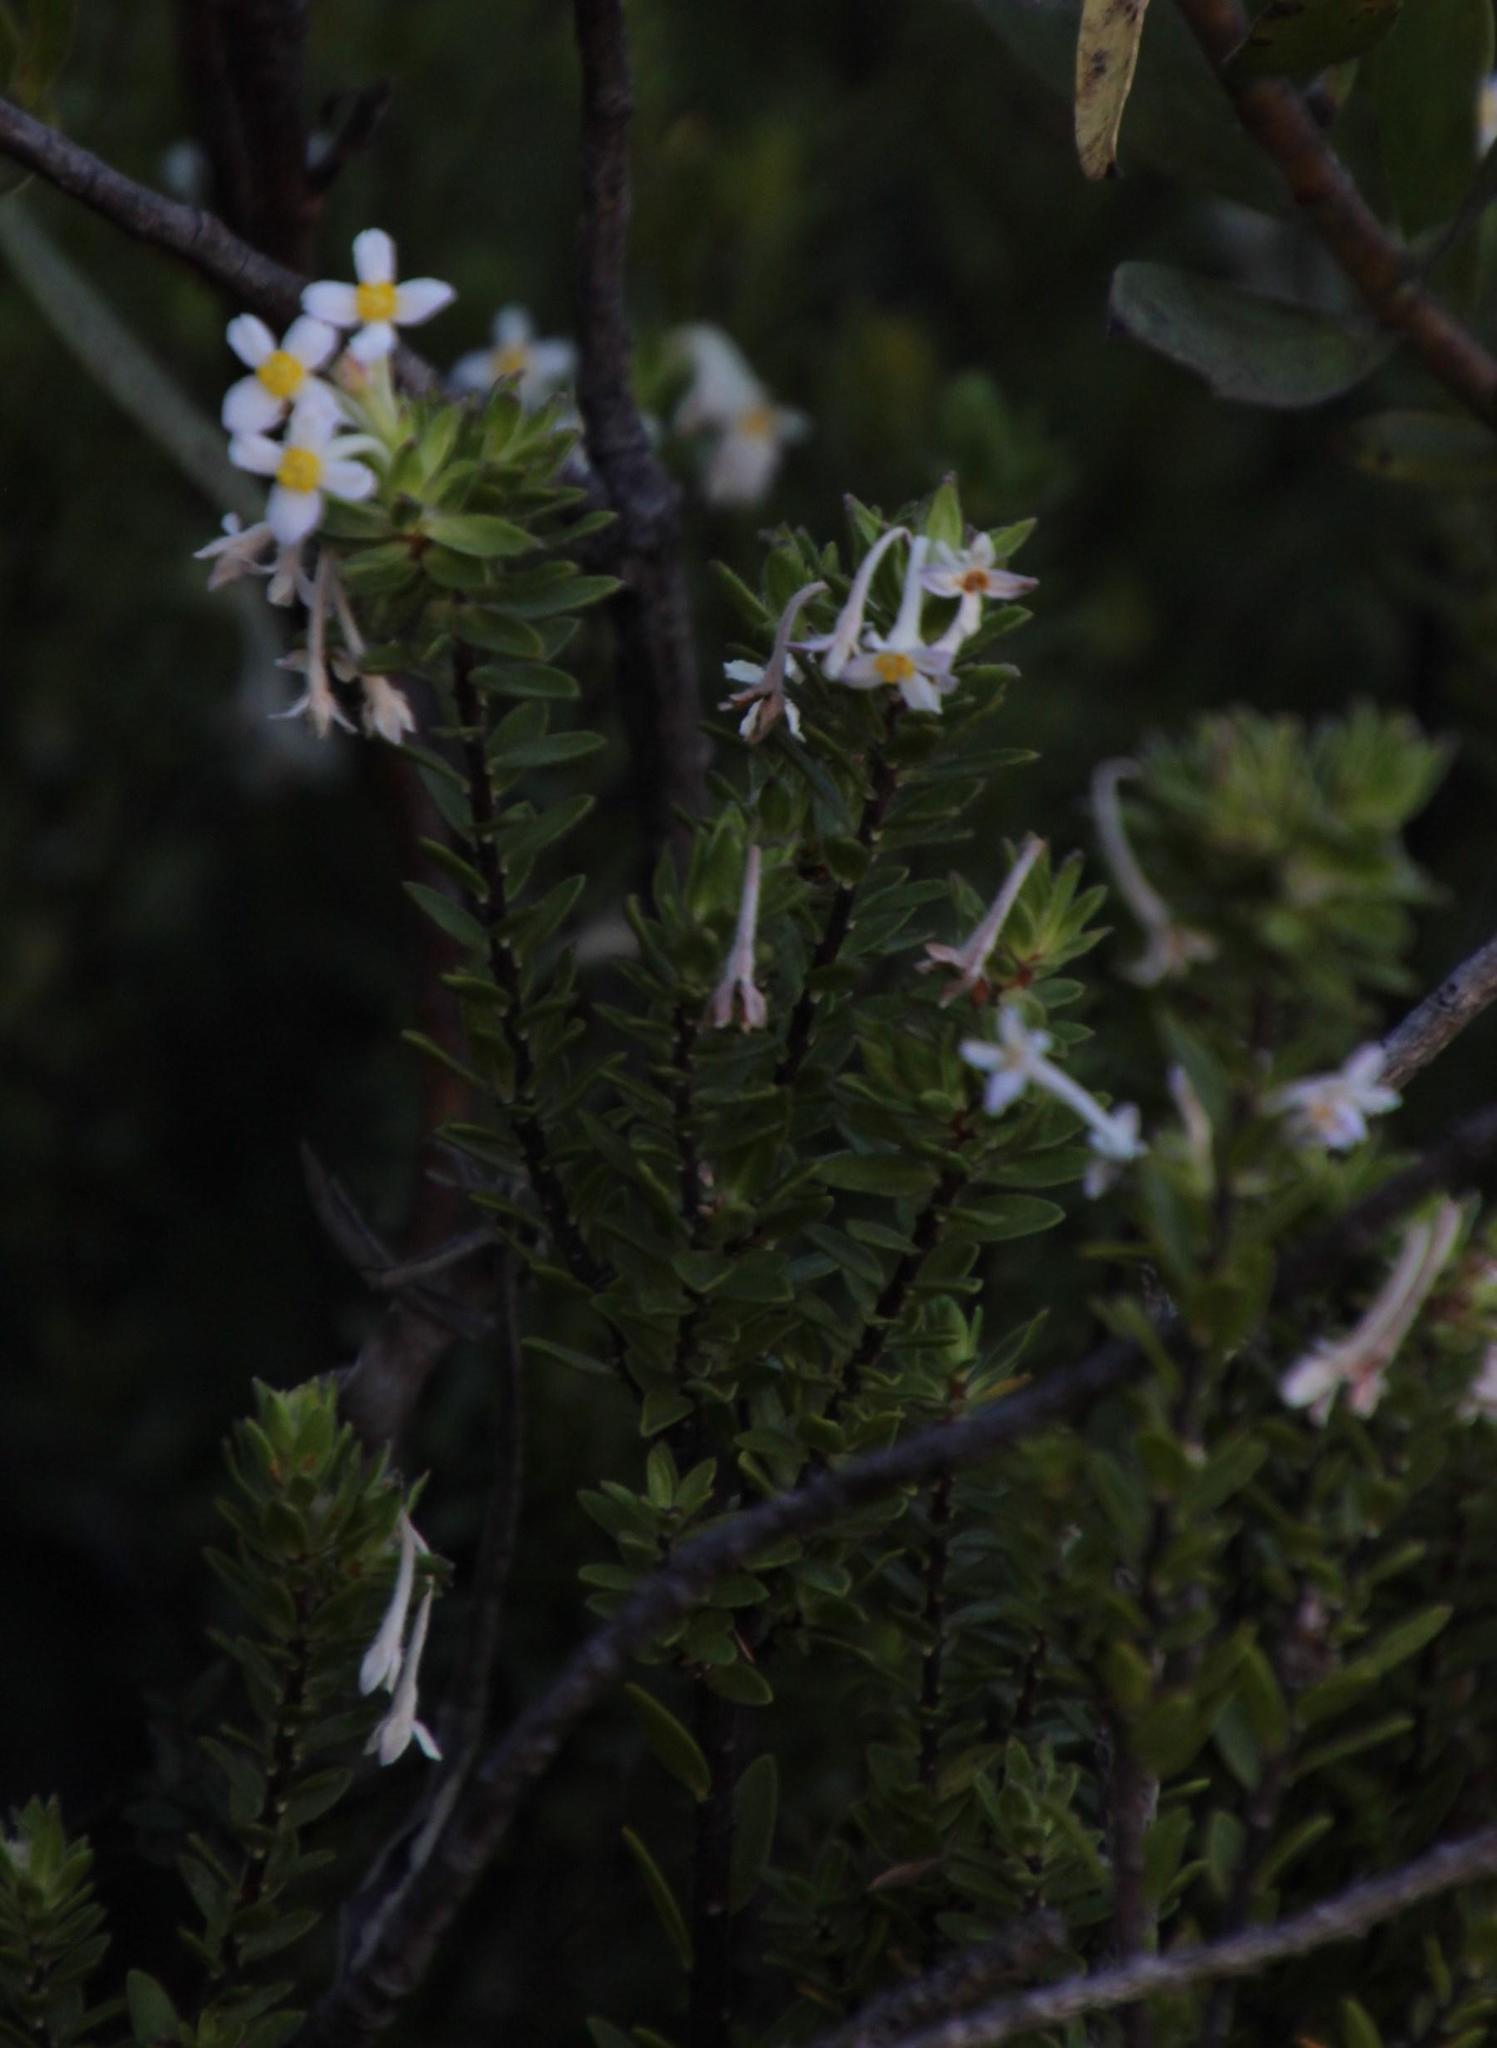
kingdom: Plantae
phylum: Tracheophyta
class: Magnoliopsida
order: Malvales
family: Thymelaeaceae
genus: Gnidia
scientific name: Gnidia tomentosa
